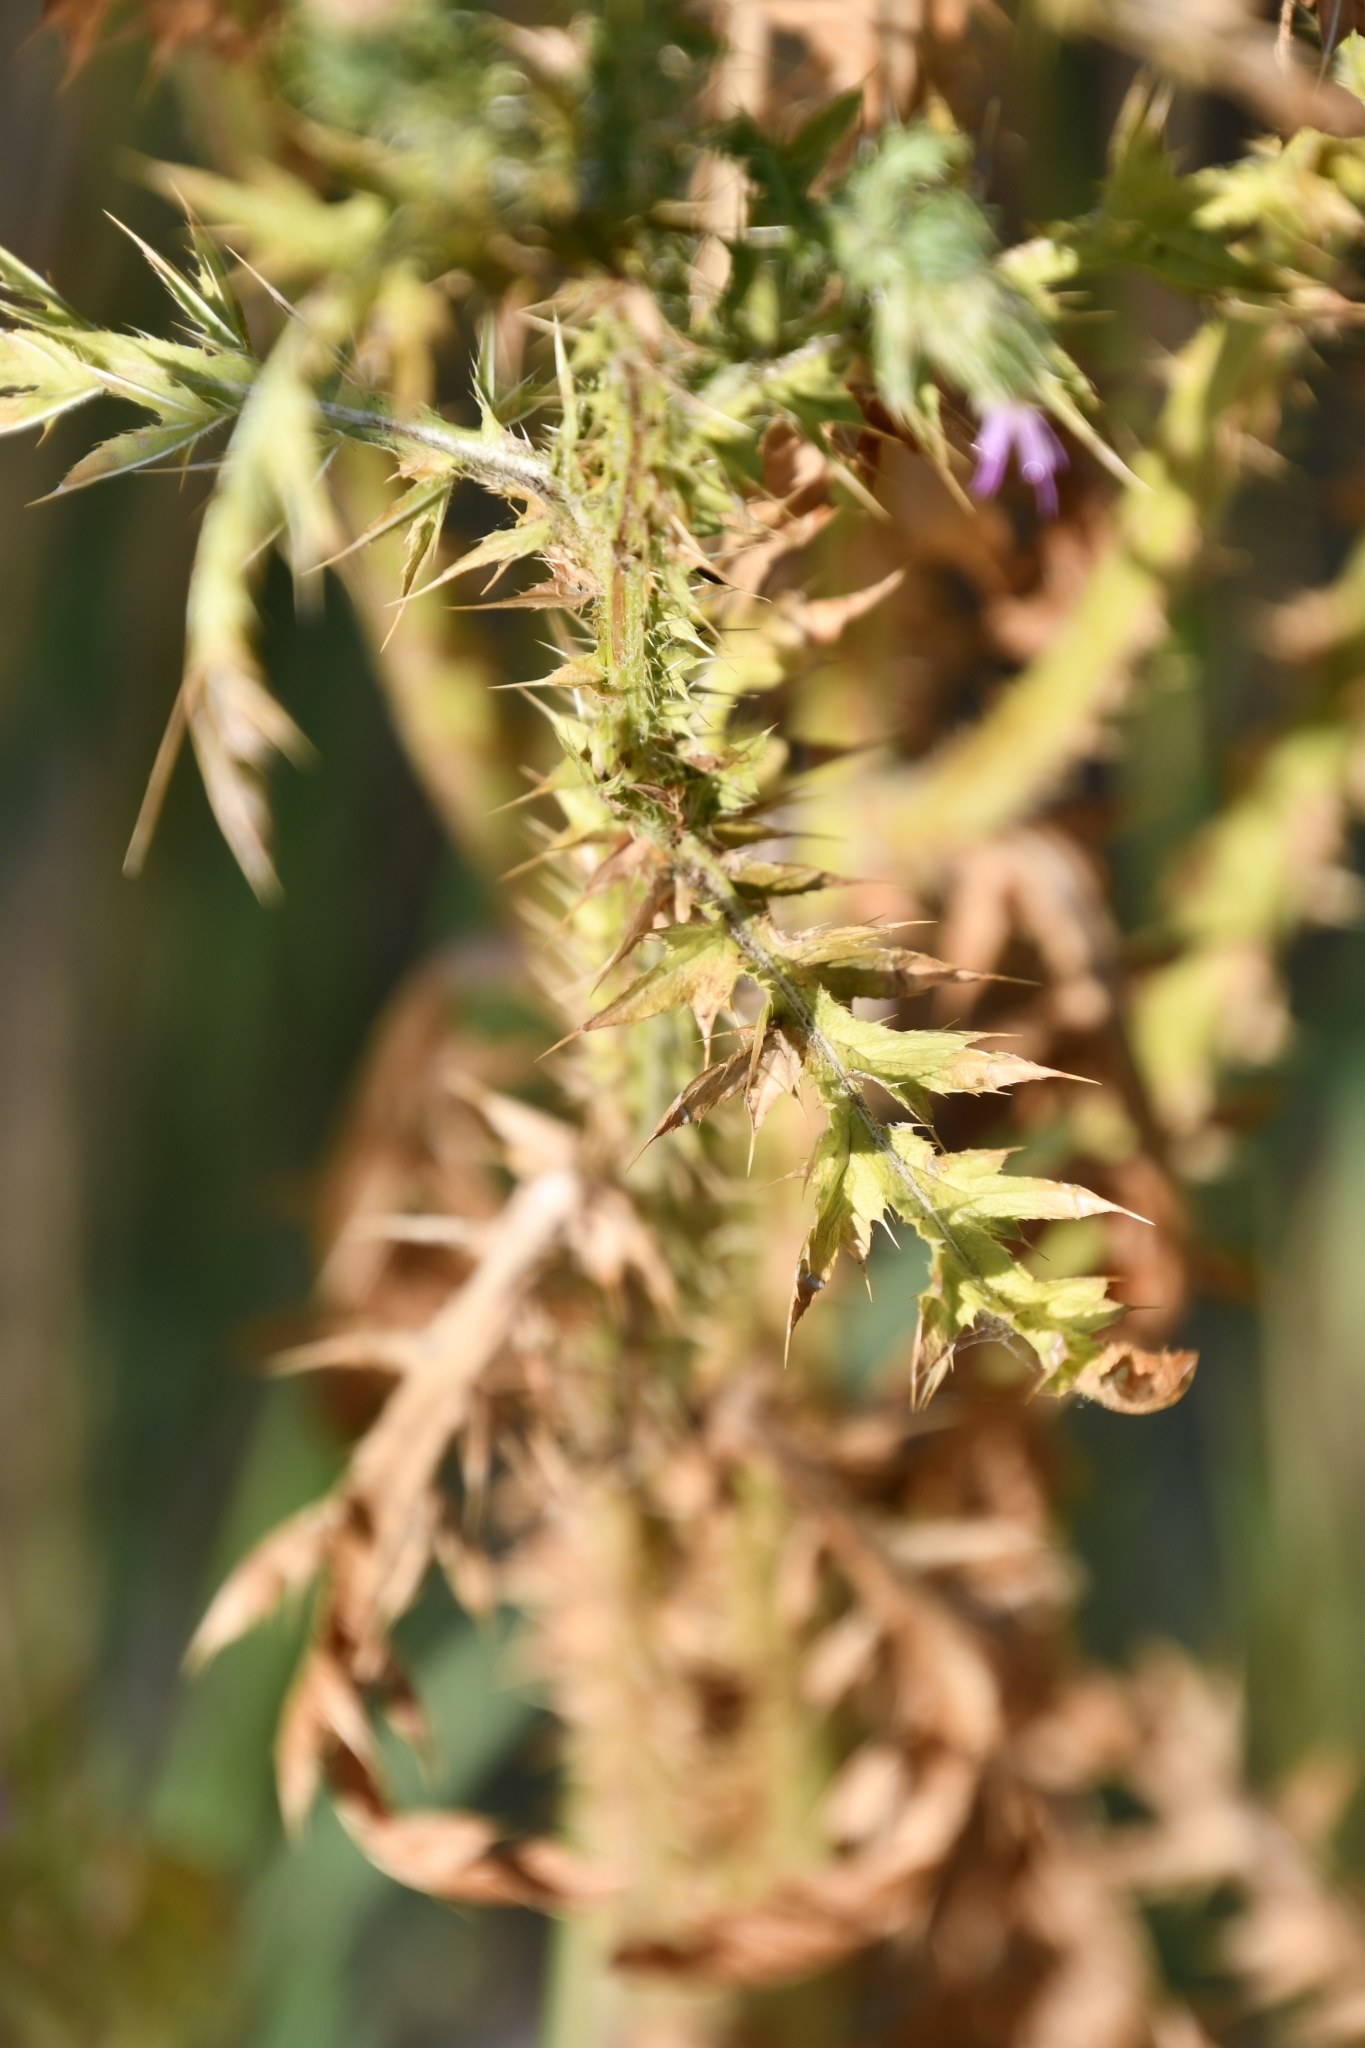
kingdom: Plantae
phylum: Tracheophyta
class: Magnoliopsida
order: Asterales
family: Asteraceae
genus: Carduus
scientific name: Carduus acanthoides
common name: Plumeless thistle
